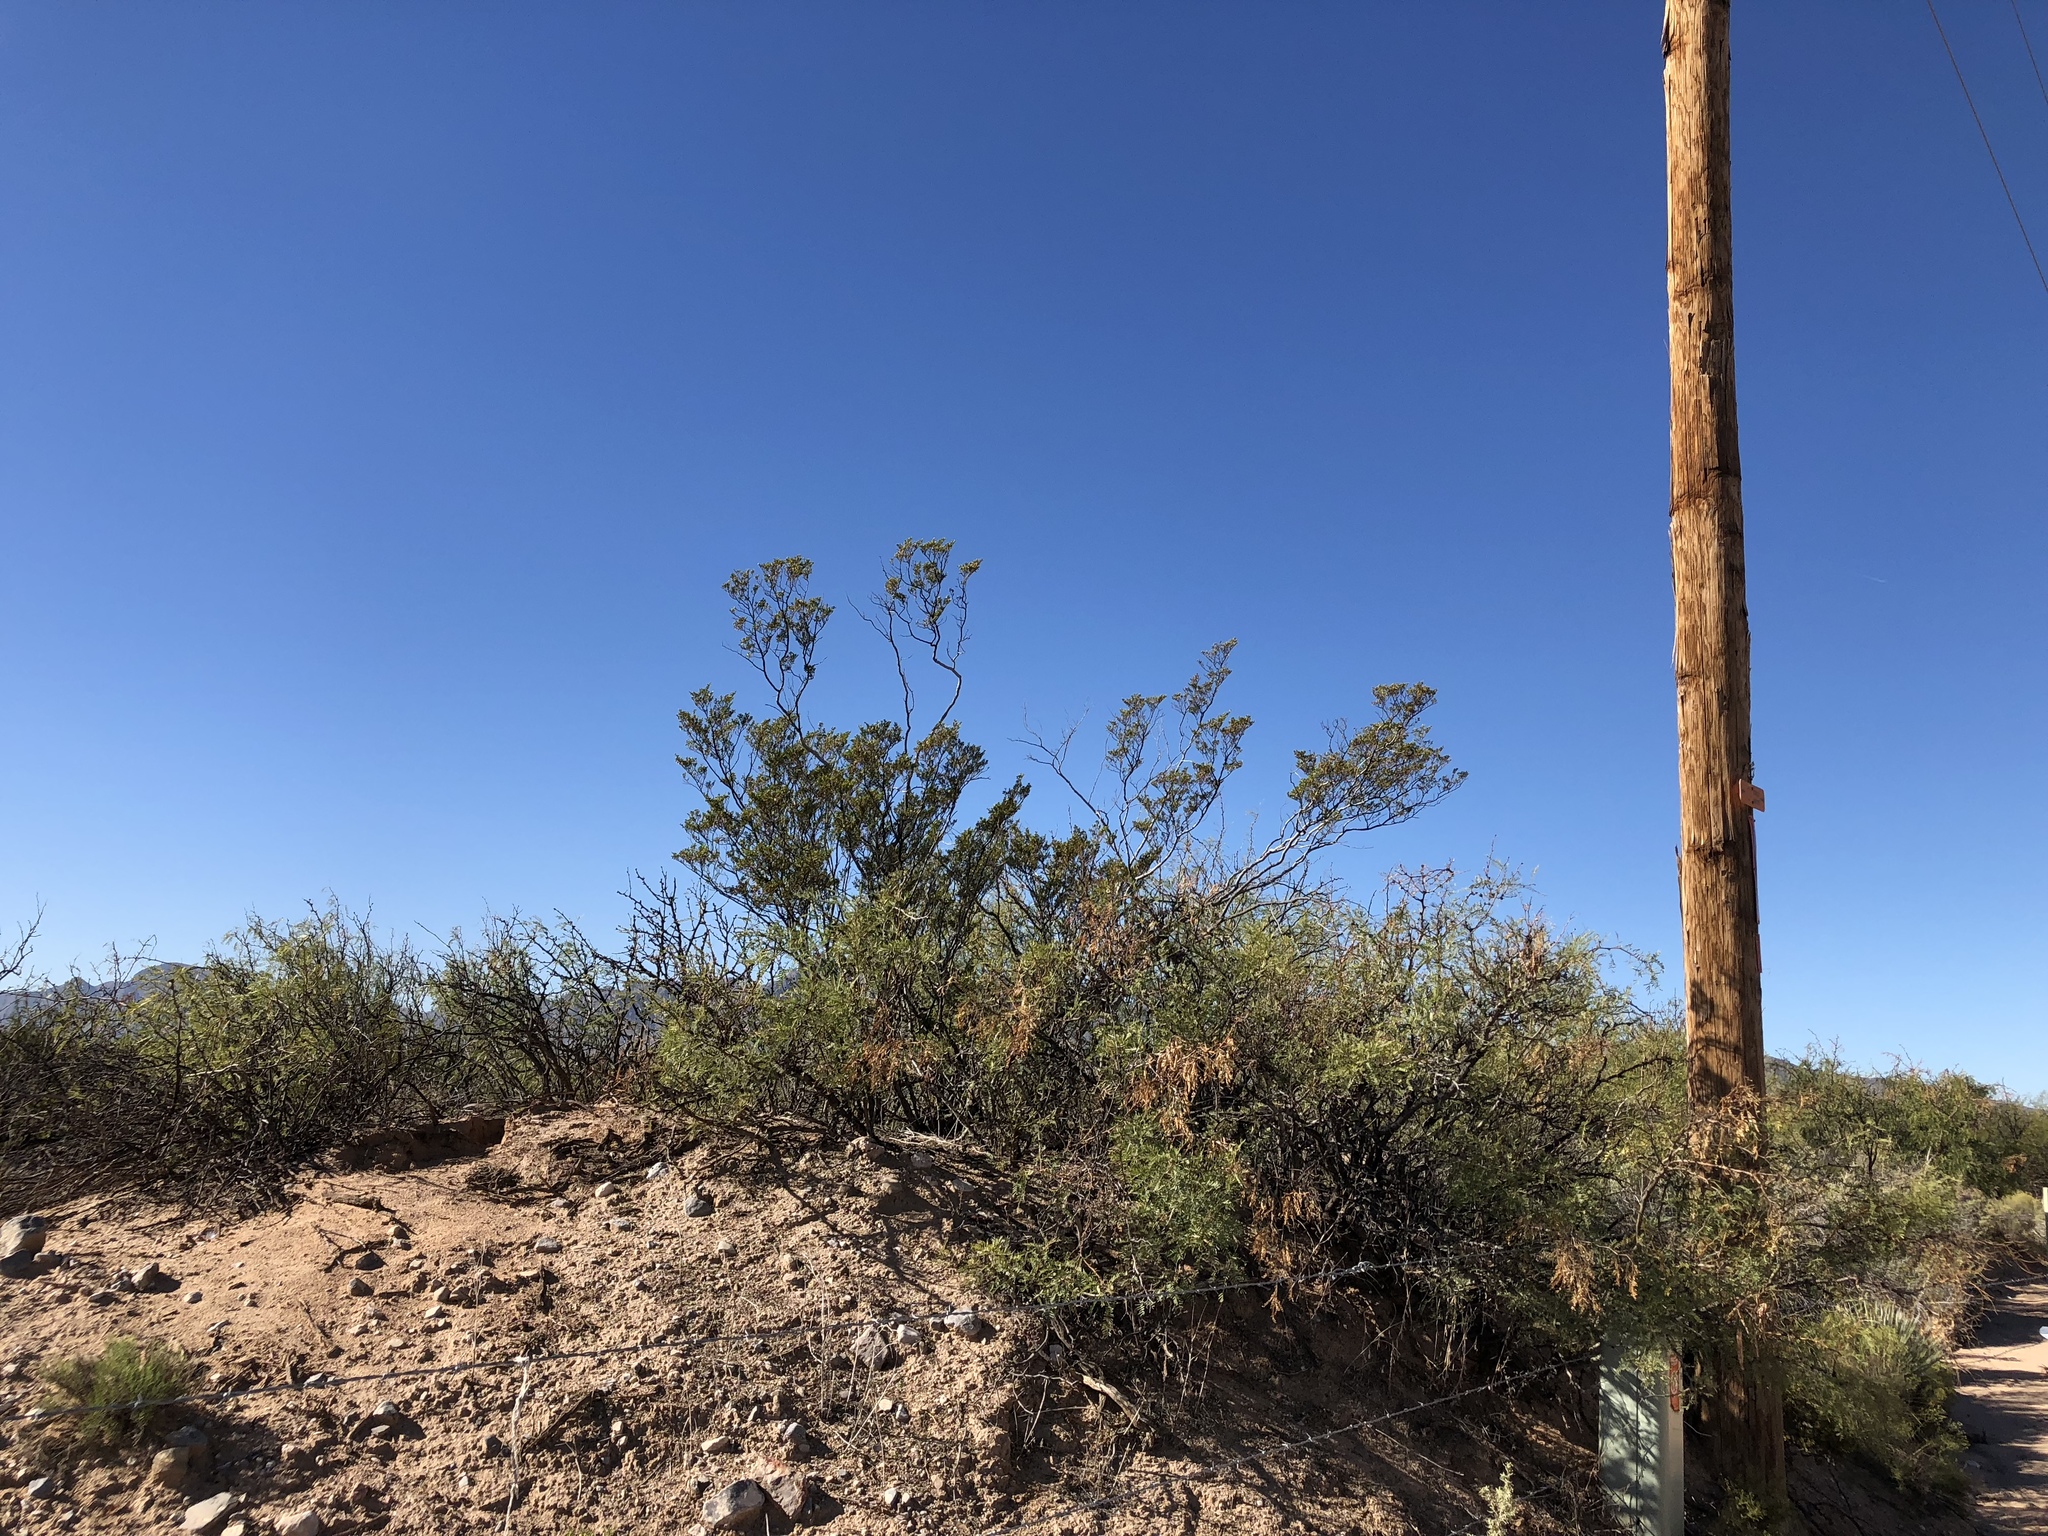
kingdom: Plantae
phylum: Tracheophyta
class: Magnoliopsida
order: Zygophyllales
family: Zygophyllaceae
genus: Larrea
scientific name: Larrea tridentata
